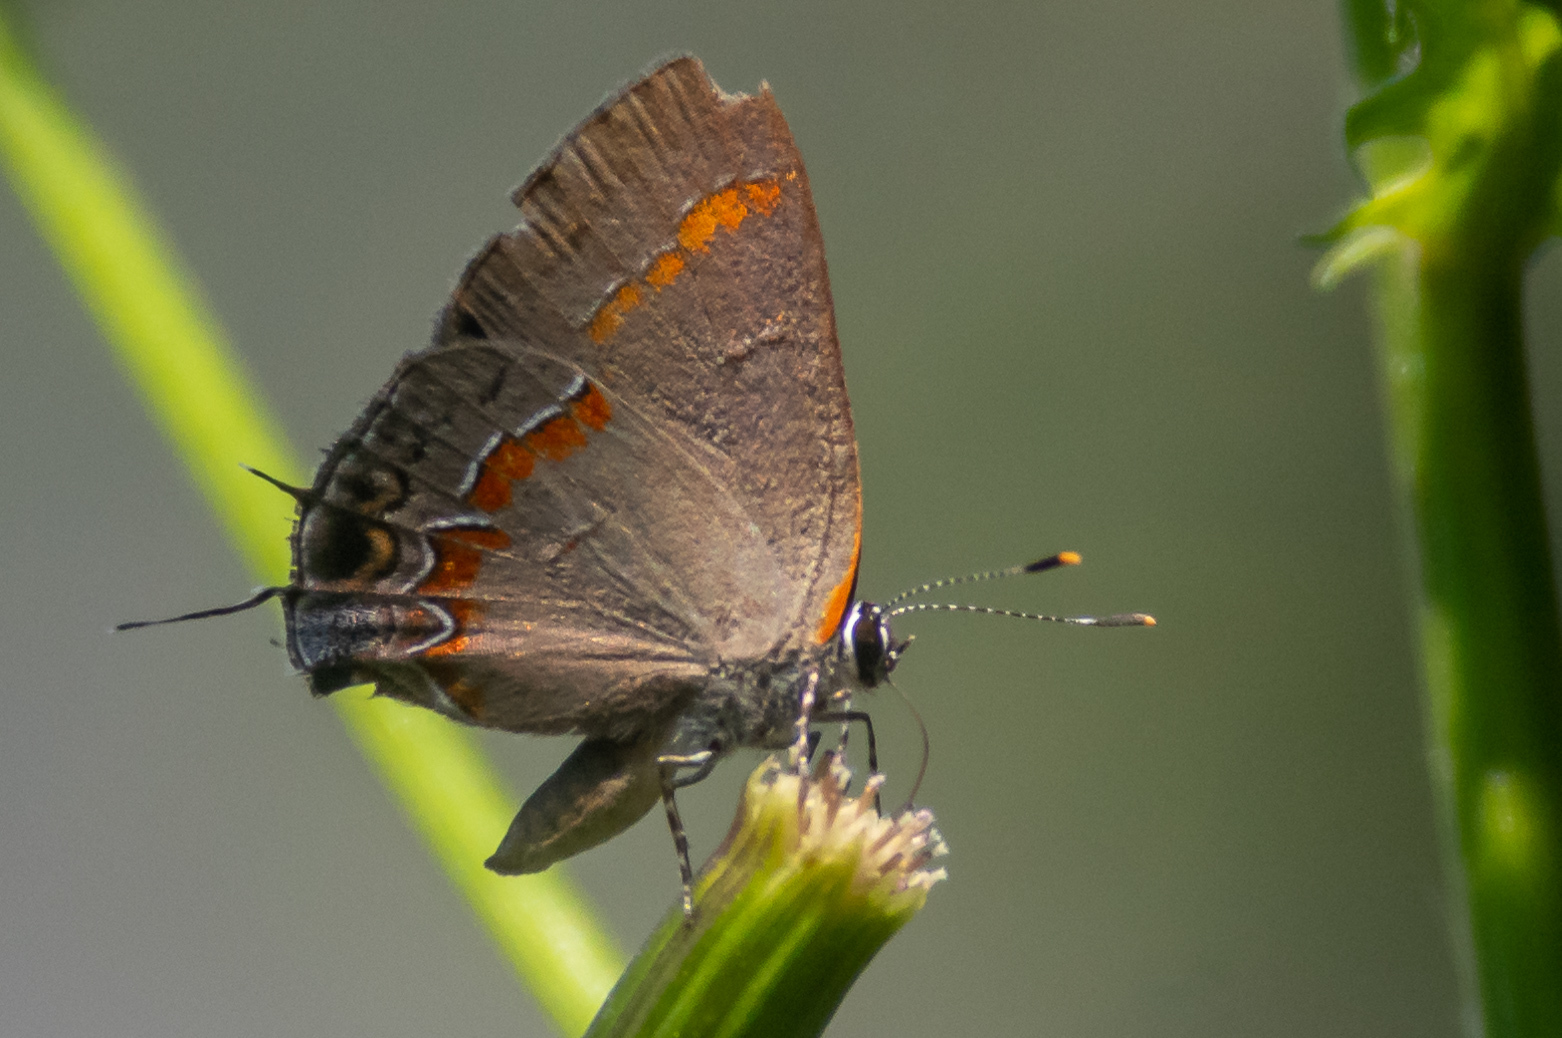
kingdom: Animalia
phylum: Arthropoda
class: Insecta
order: Lepidoptera
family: Lycaenidae
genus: Calycopis
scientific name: Calycopis cecrops
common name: Red-banded hairstreak
